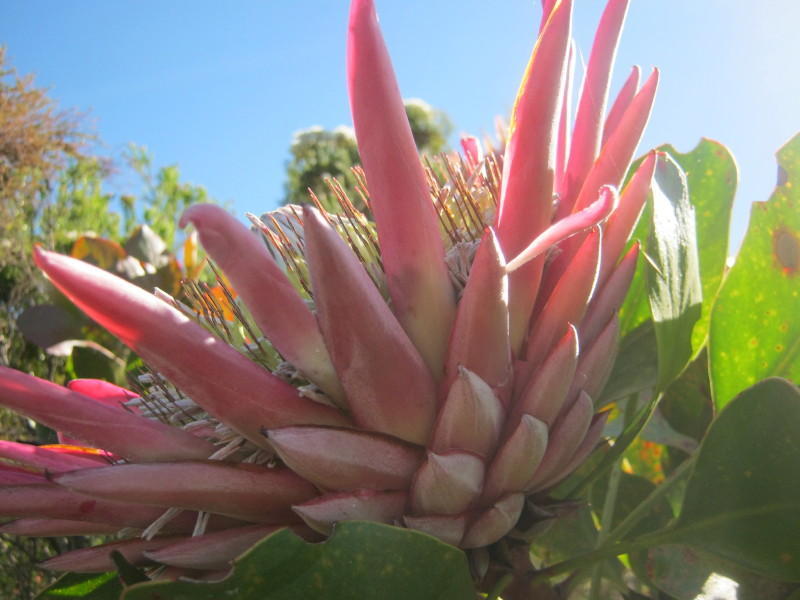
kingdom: Plantae
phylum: Tracheophyta
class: Magnoliopsida
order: Proteales
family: Proteaceae
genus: Protea
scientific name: Protea cynaroides
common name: King protea
